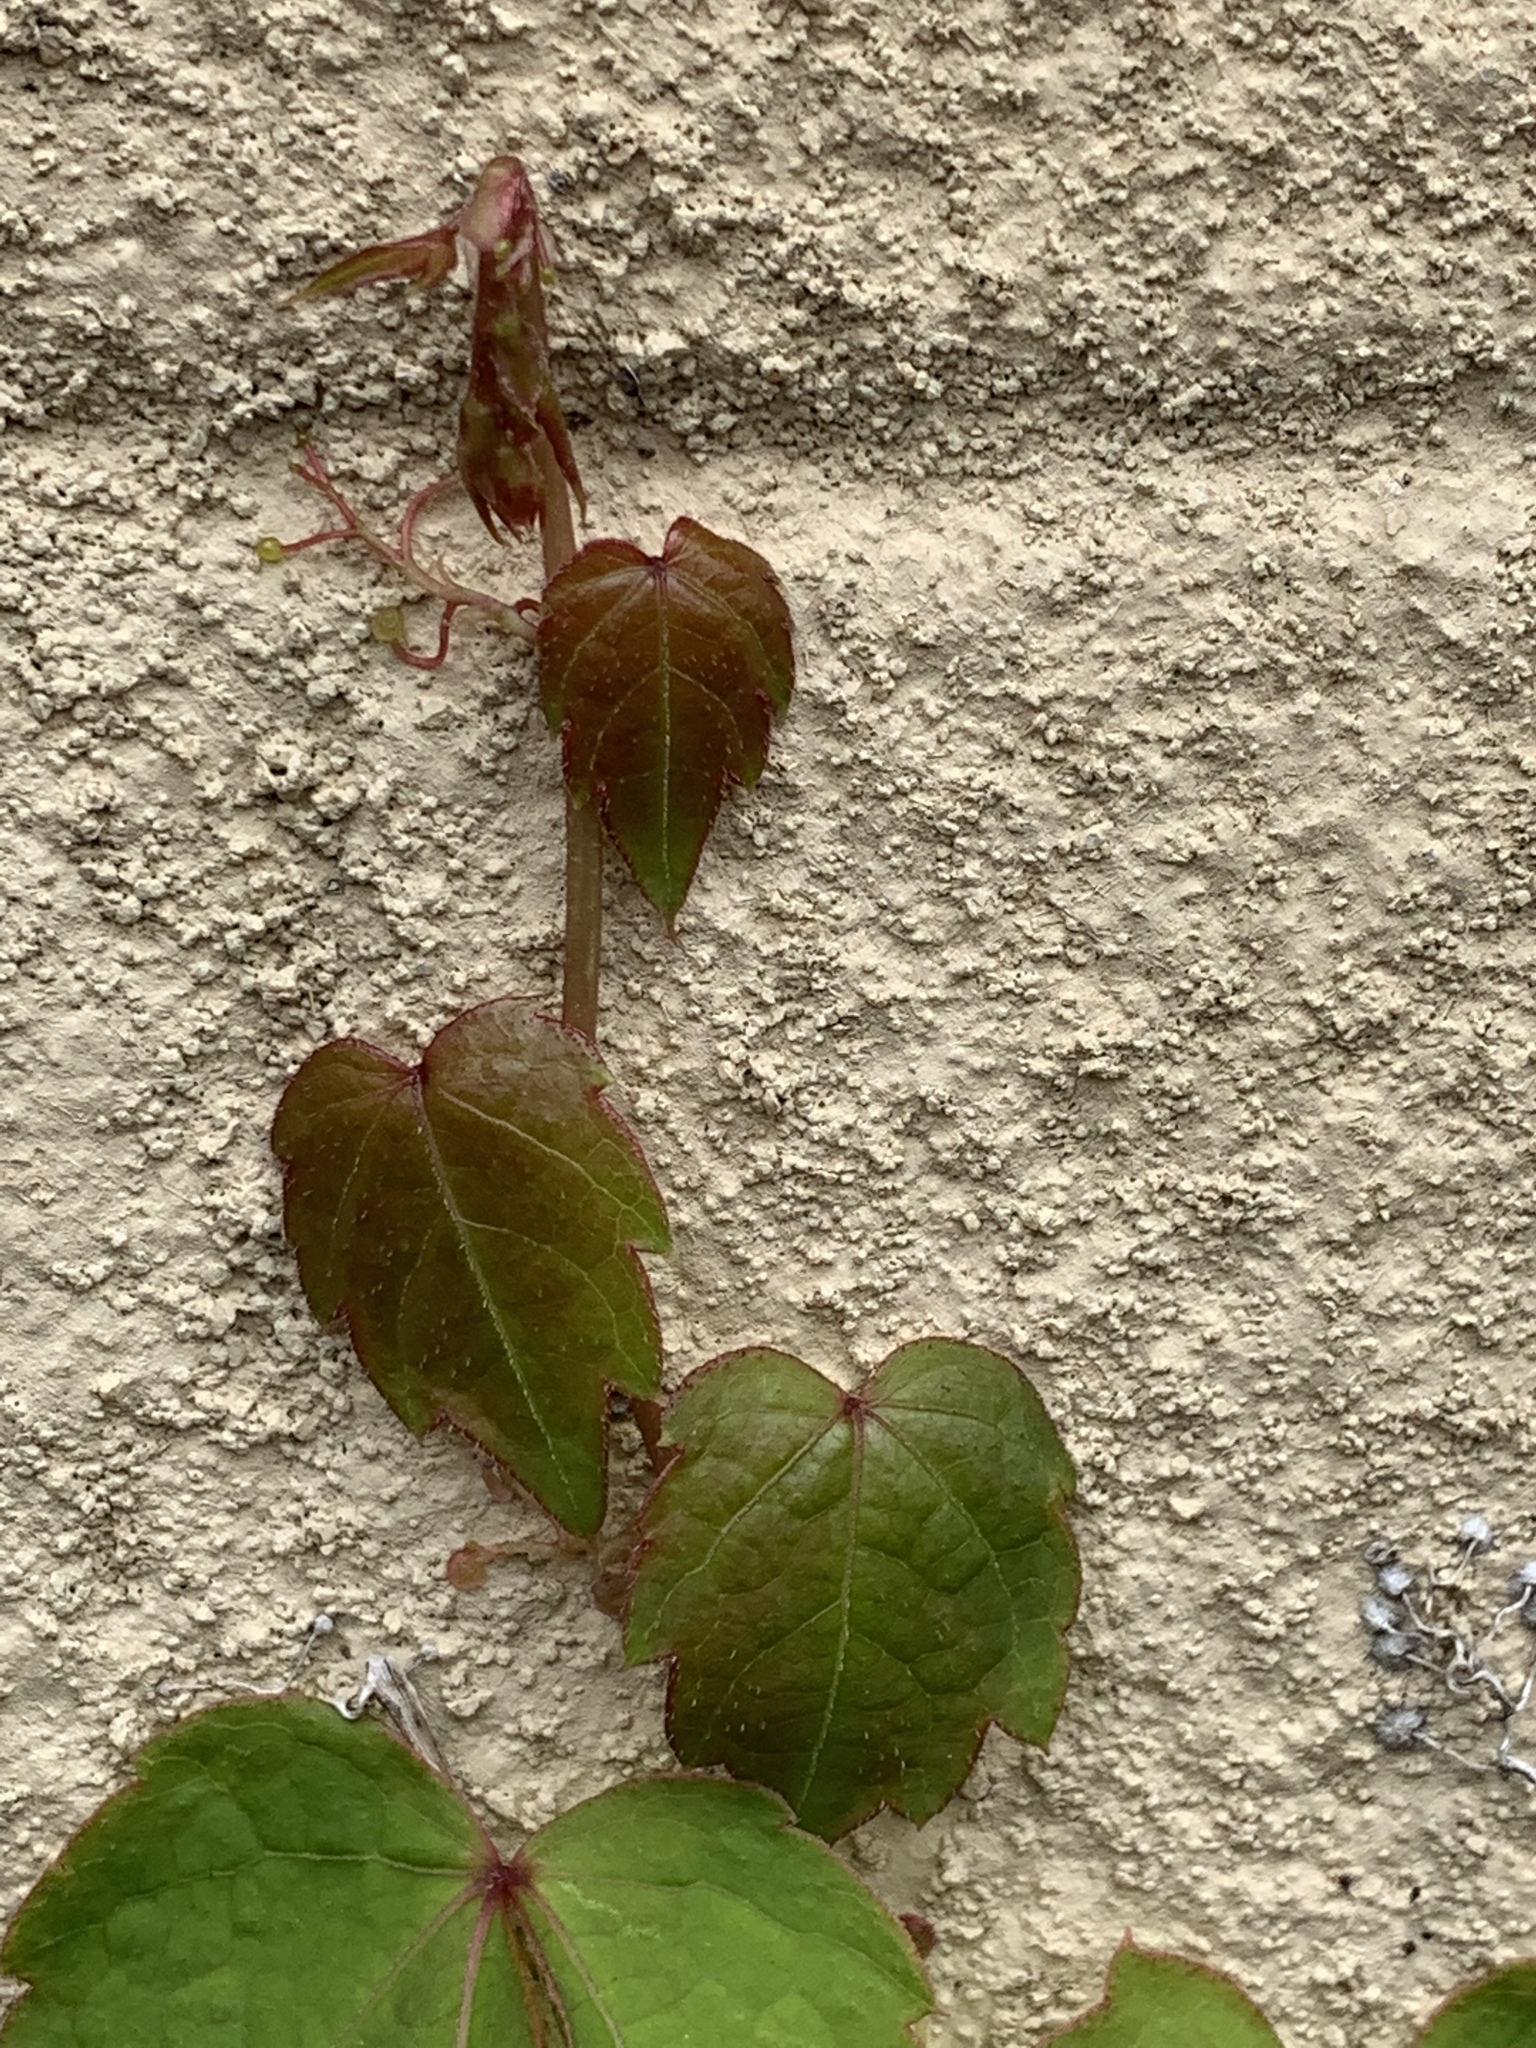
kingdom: Plantae
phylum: Tracheophyta
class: Magnoliopsida
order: Vitales
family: Vitaceae
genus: Parthenocissus
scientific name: Parthenocissus tricuspidata
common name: Boston ivy
